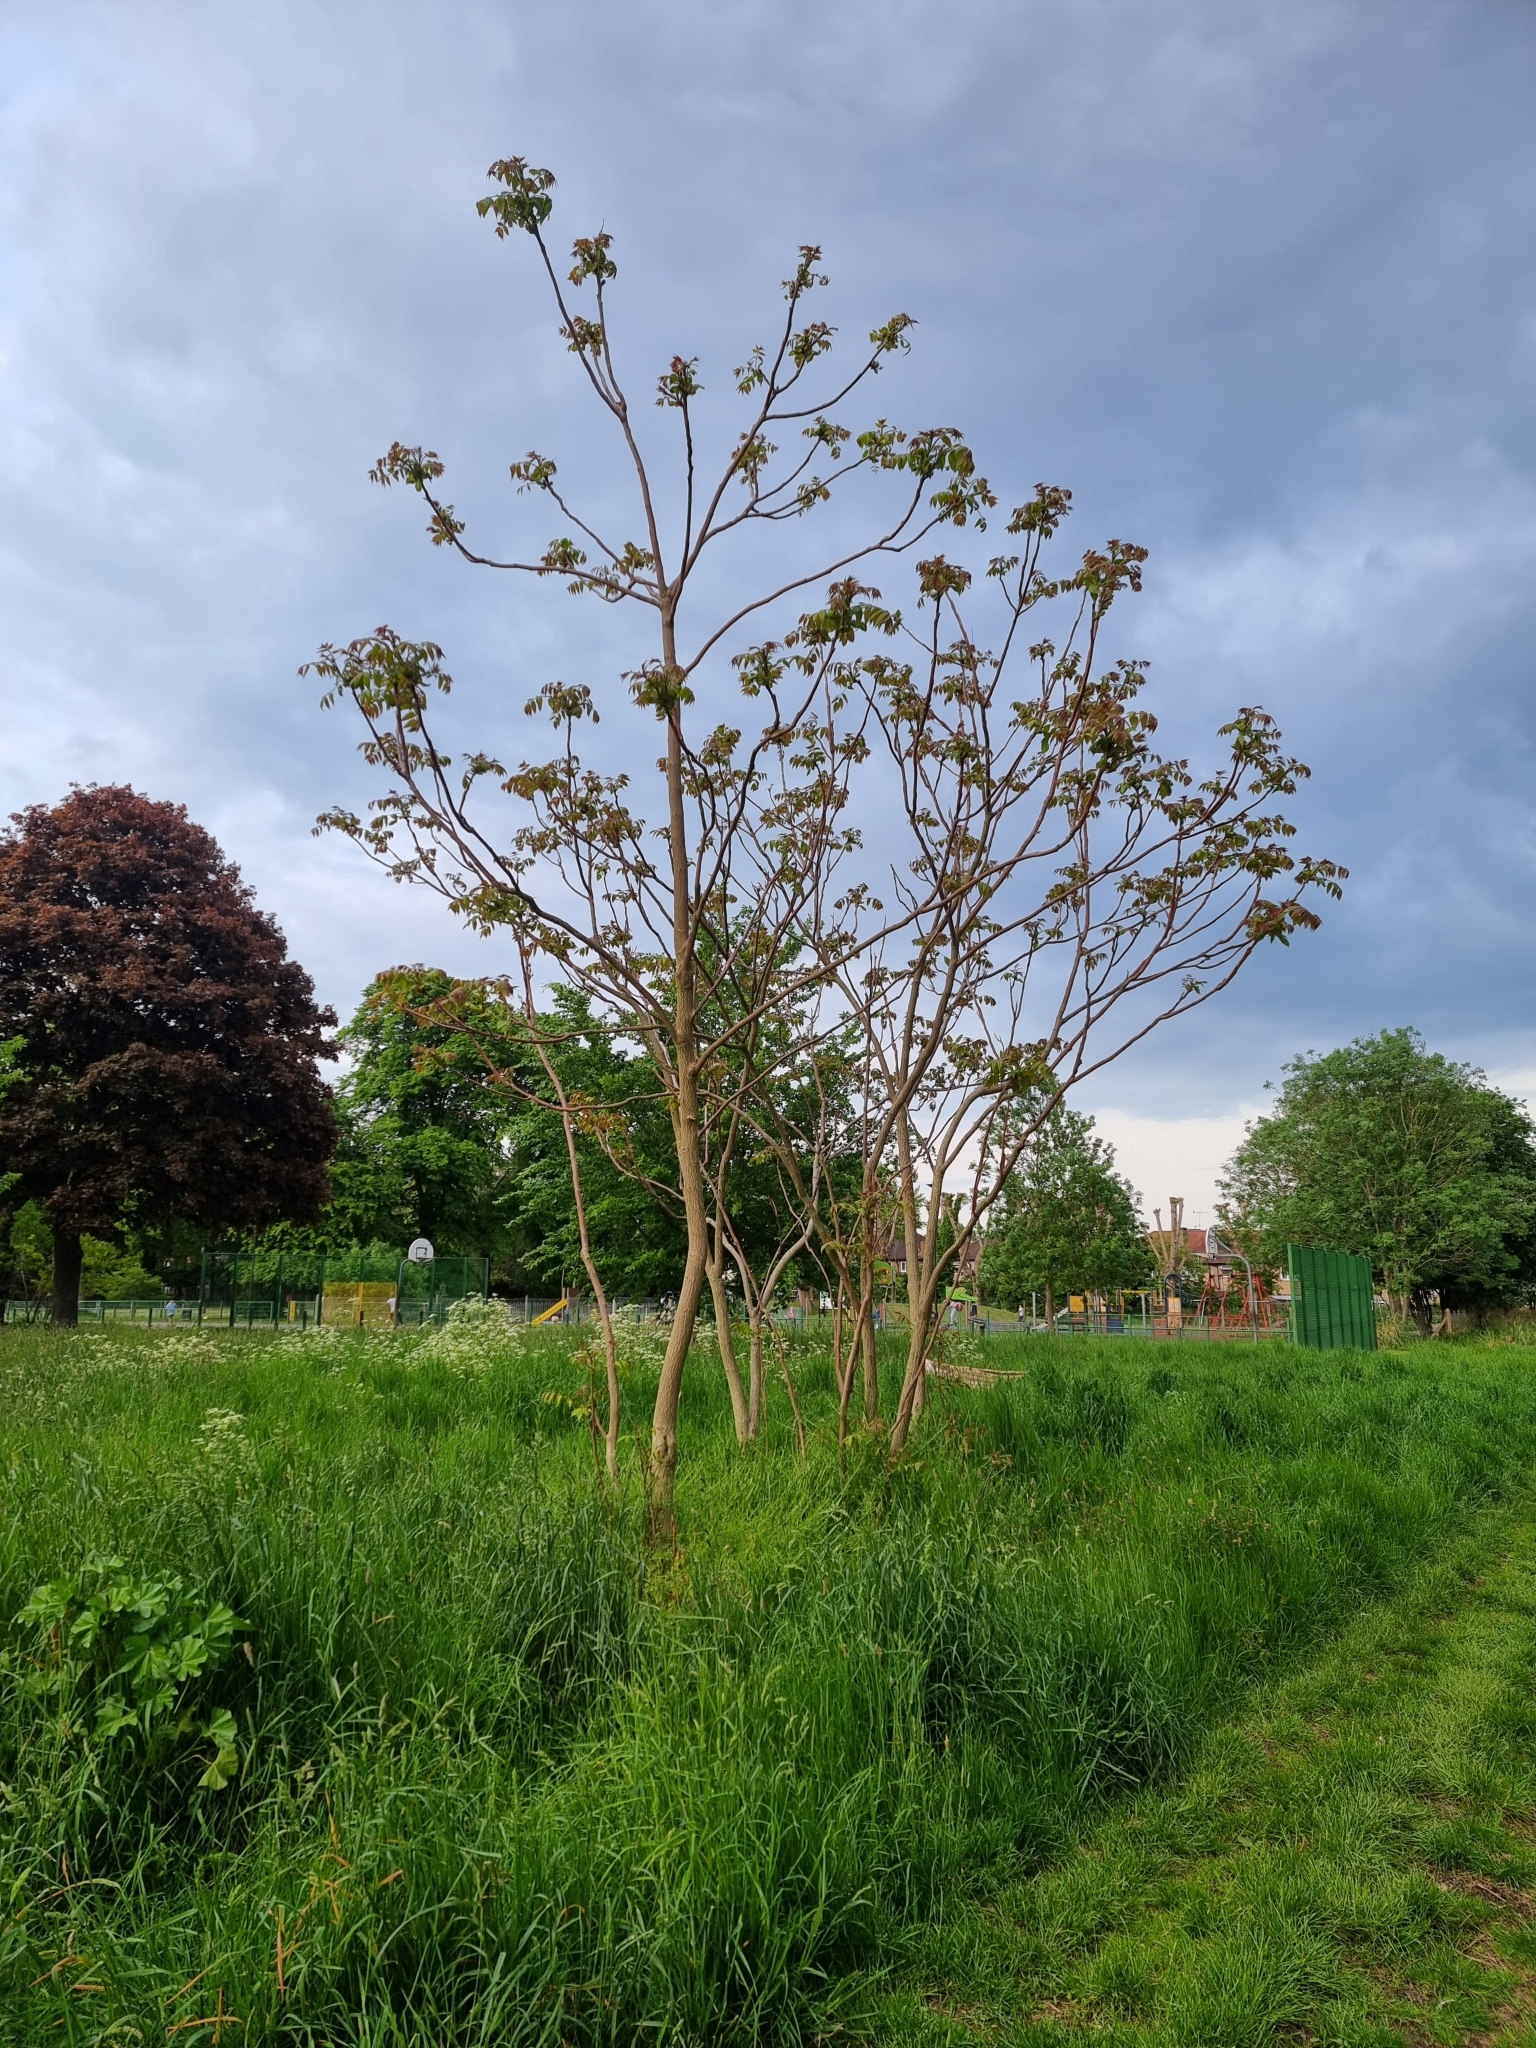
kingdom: Plantae
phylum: Tracheophyta
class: Magnoliopsida
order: Sapindales
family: Simaroubaceae
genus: Ailanthus
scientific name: Ailanthus altissima
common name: Tree-of-heaven
